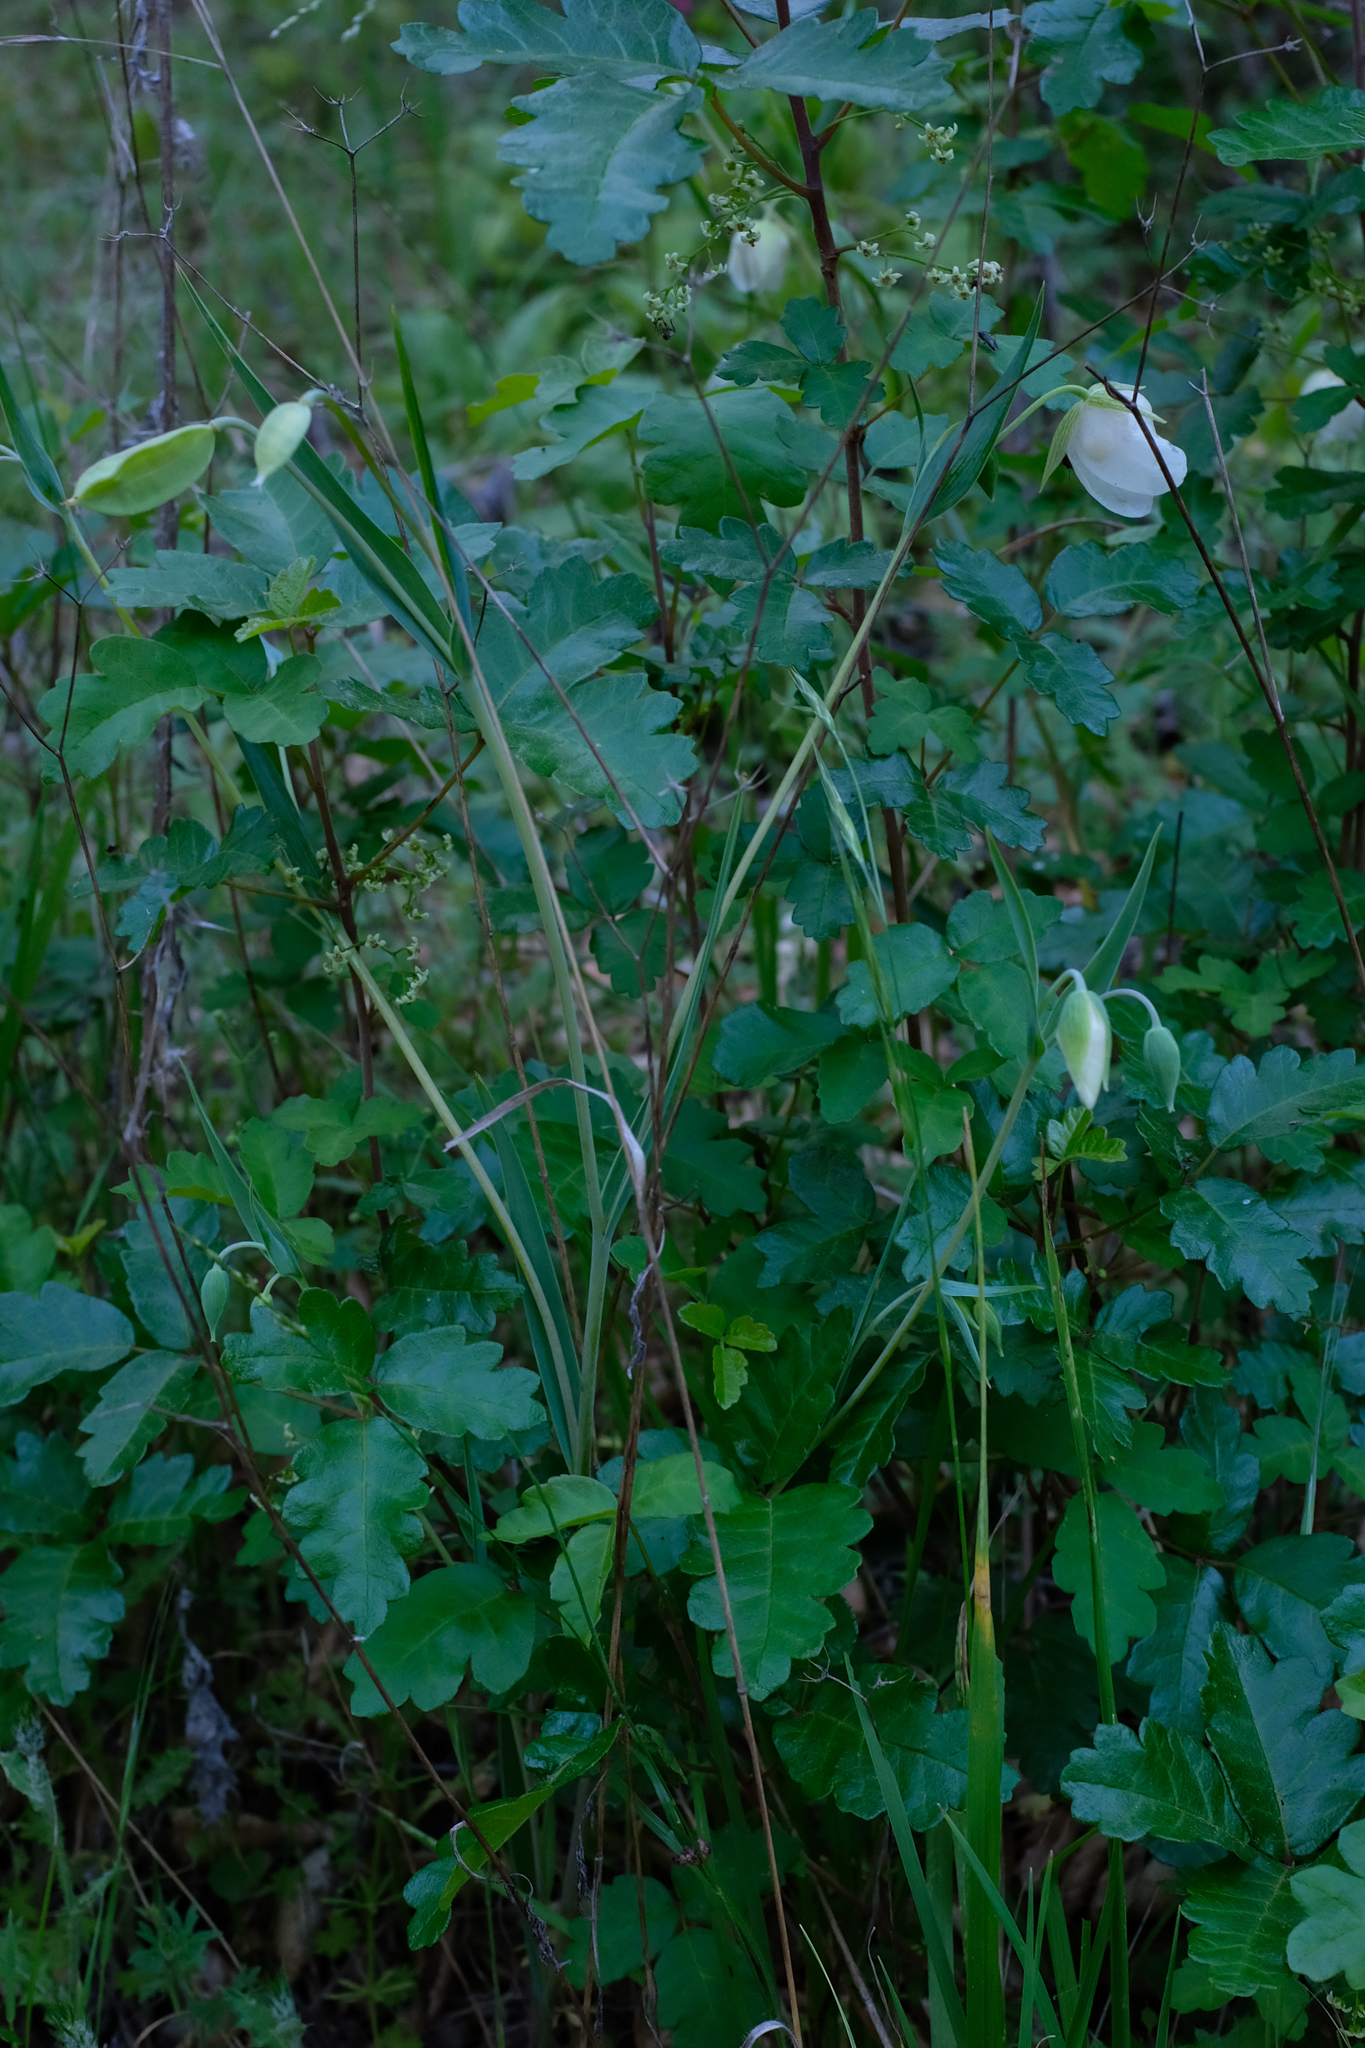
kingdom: Plantae
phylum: Tracheophyta
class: Liliopsida
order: Liliales
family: Liliaceae
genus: Calochortus
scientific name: Calochortus albus
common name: Fairy-lantern
